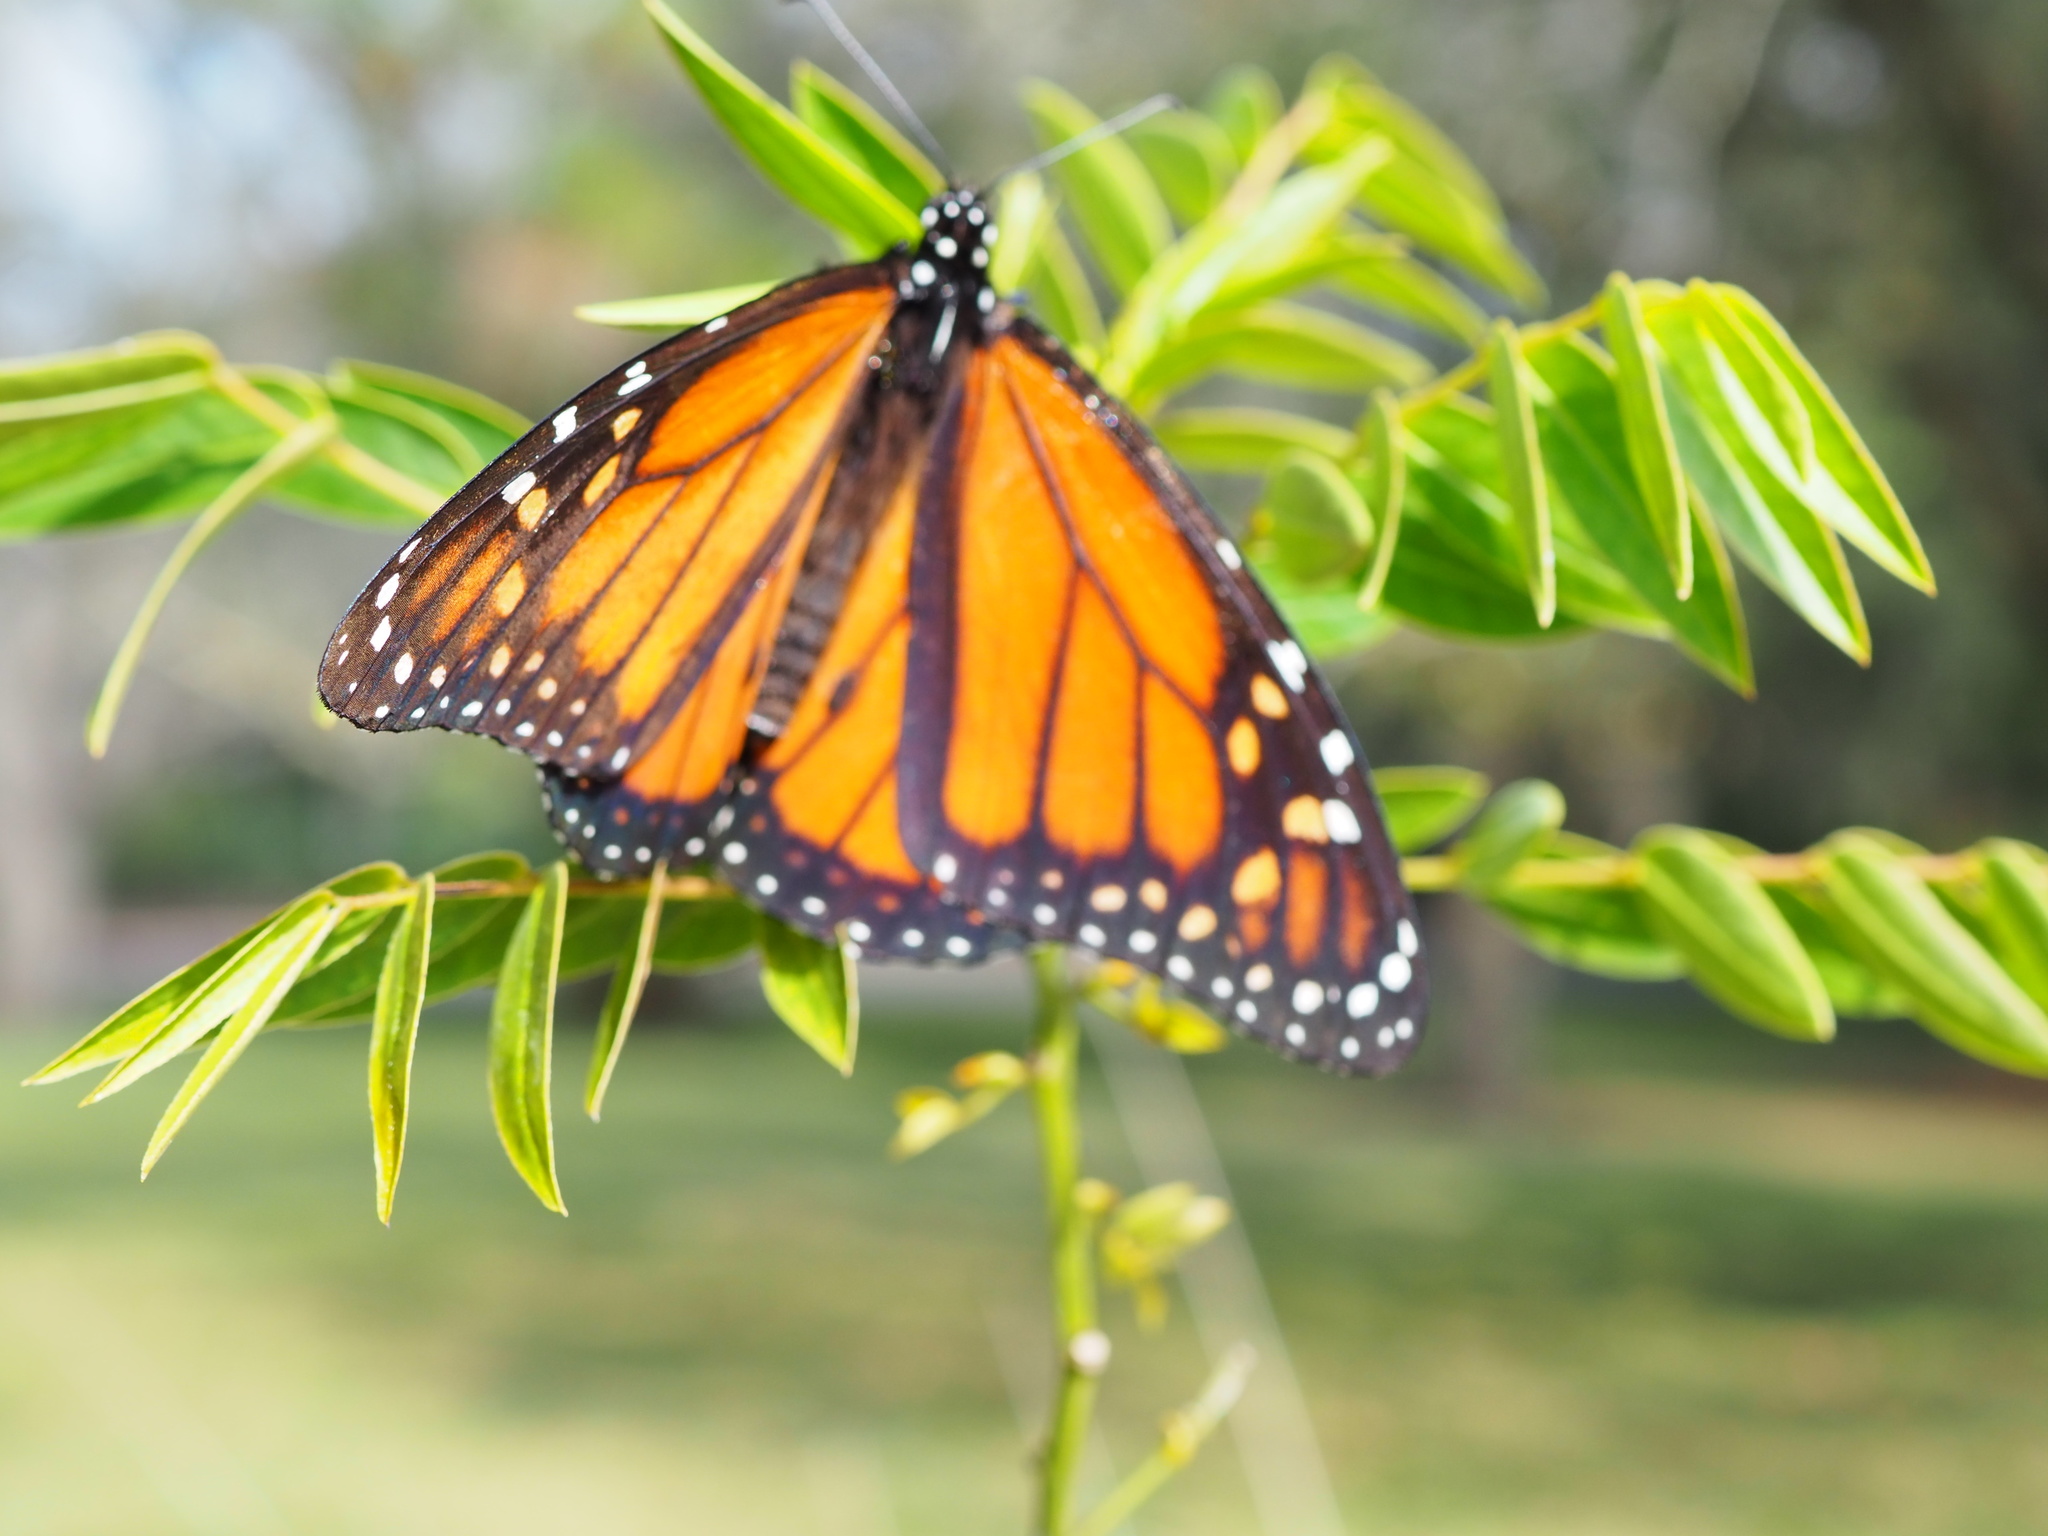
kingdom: Animalia
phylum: Arthropoda
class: Insecta
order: Lepidoptera
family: Nymphalidae
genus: Danaus
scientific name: Danaus plexippus
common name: Monarch
